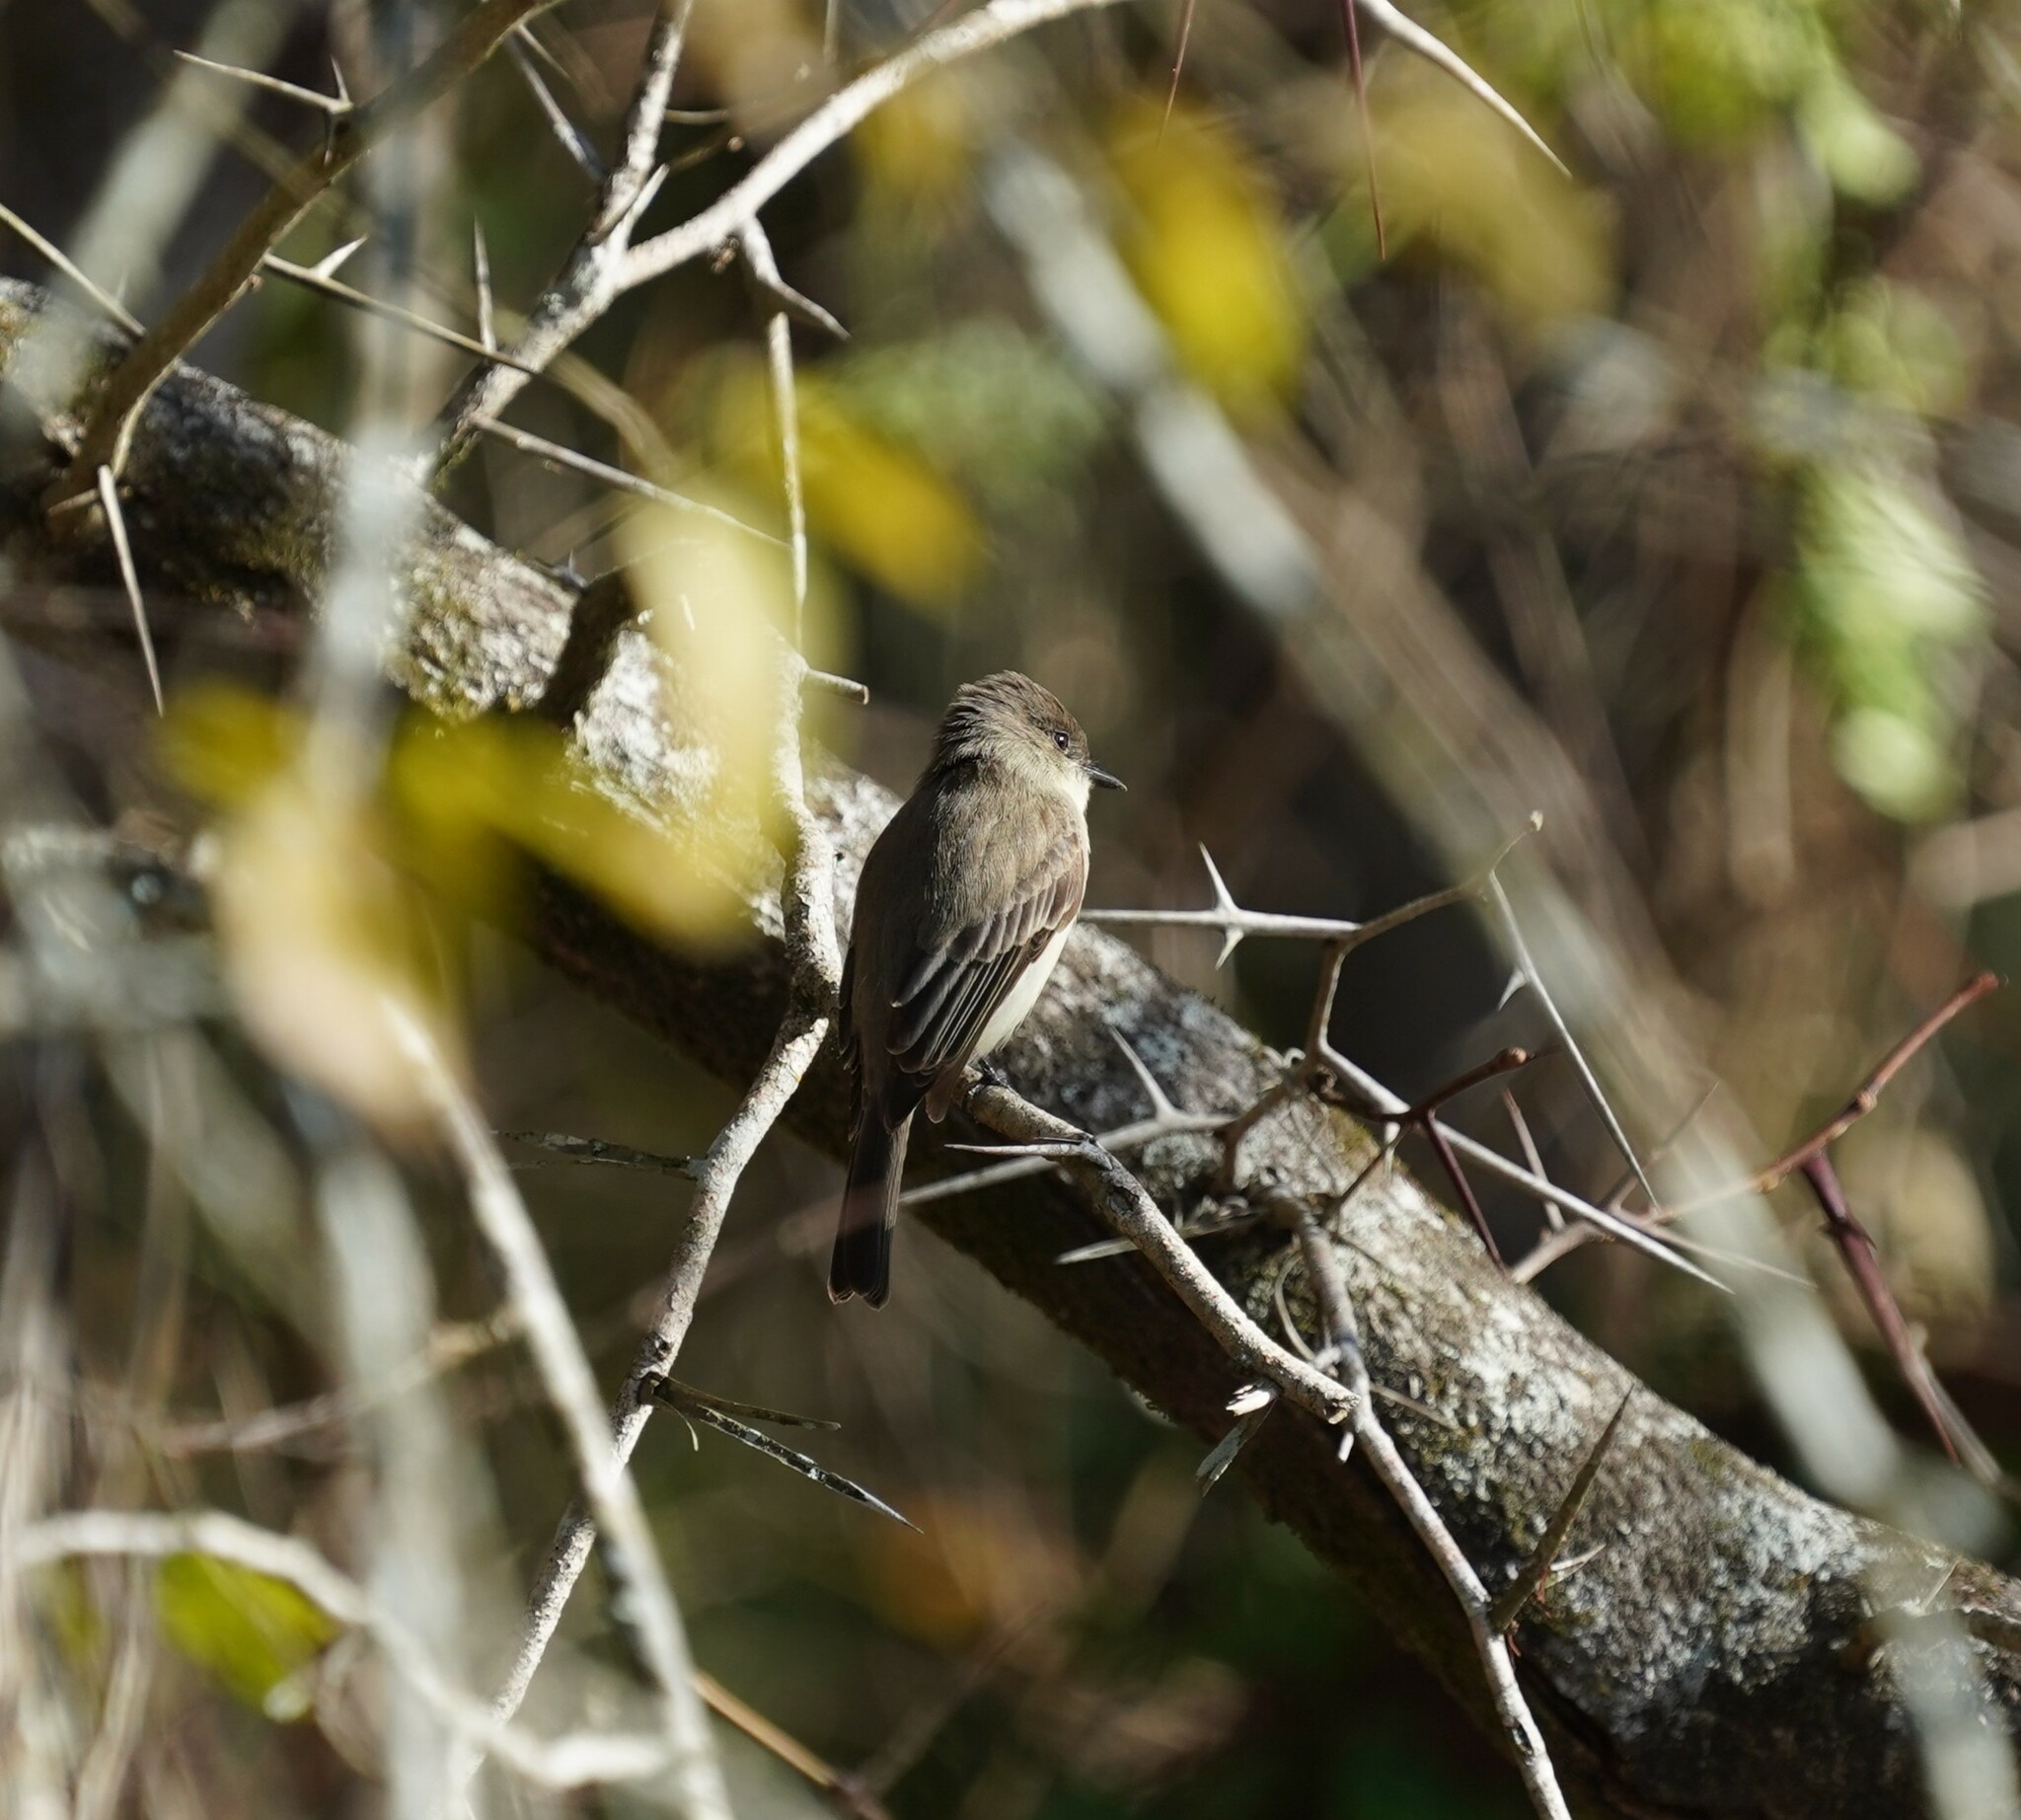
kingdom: Animalia
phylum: Chordata
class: Aves
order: Passeriformes
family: Tyrannidae
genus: Sayornis
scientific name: Sayornis phoebe
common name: Eastern phoebe
